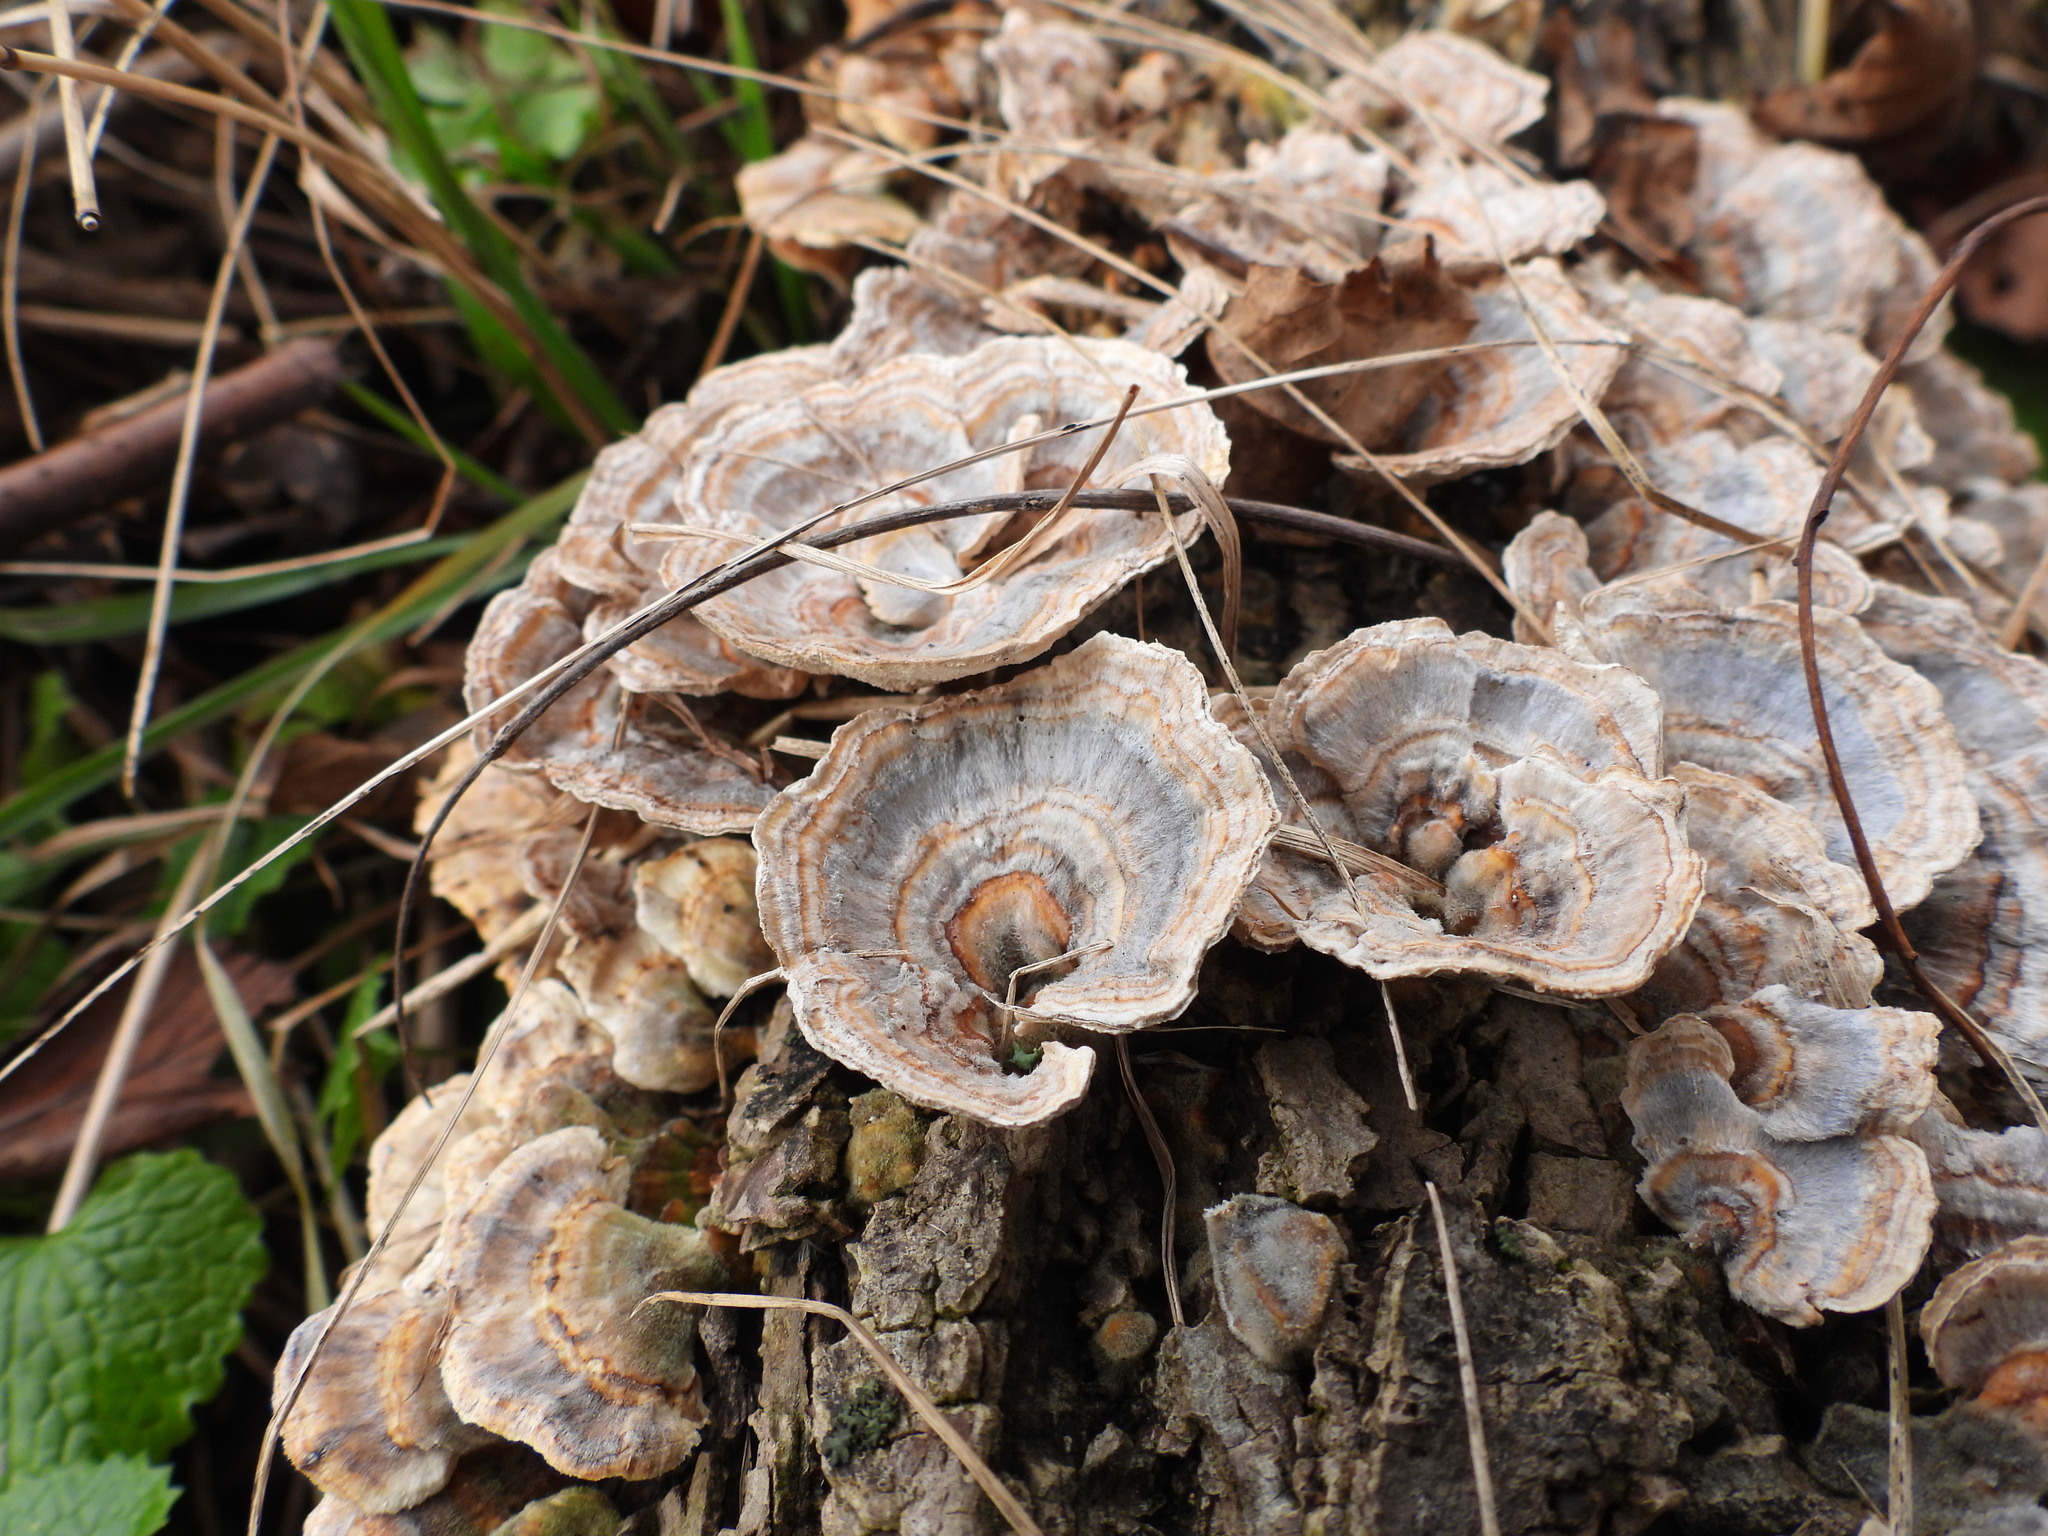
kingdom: Fungi
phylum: Basidiomycota
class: Agaricomycetes
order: Polyporales
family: Polyporaceae
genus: Trametes
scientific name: Trametes versicolor
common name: Turkeytail
